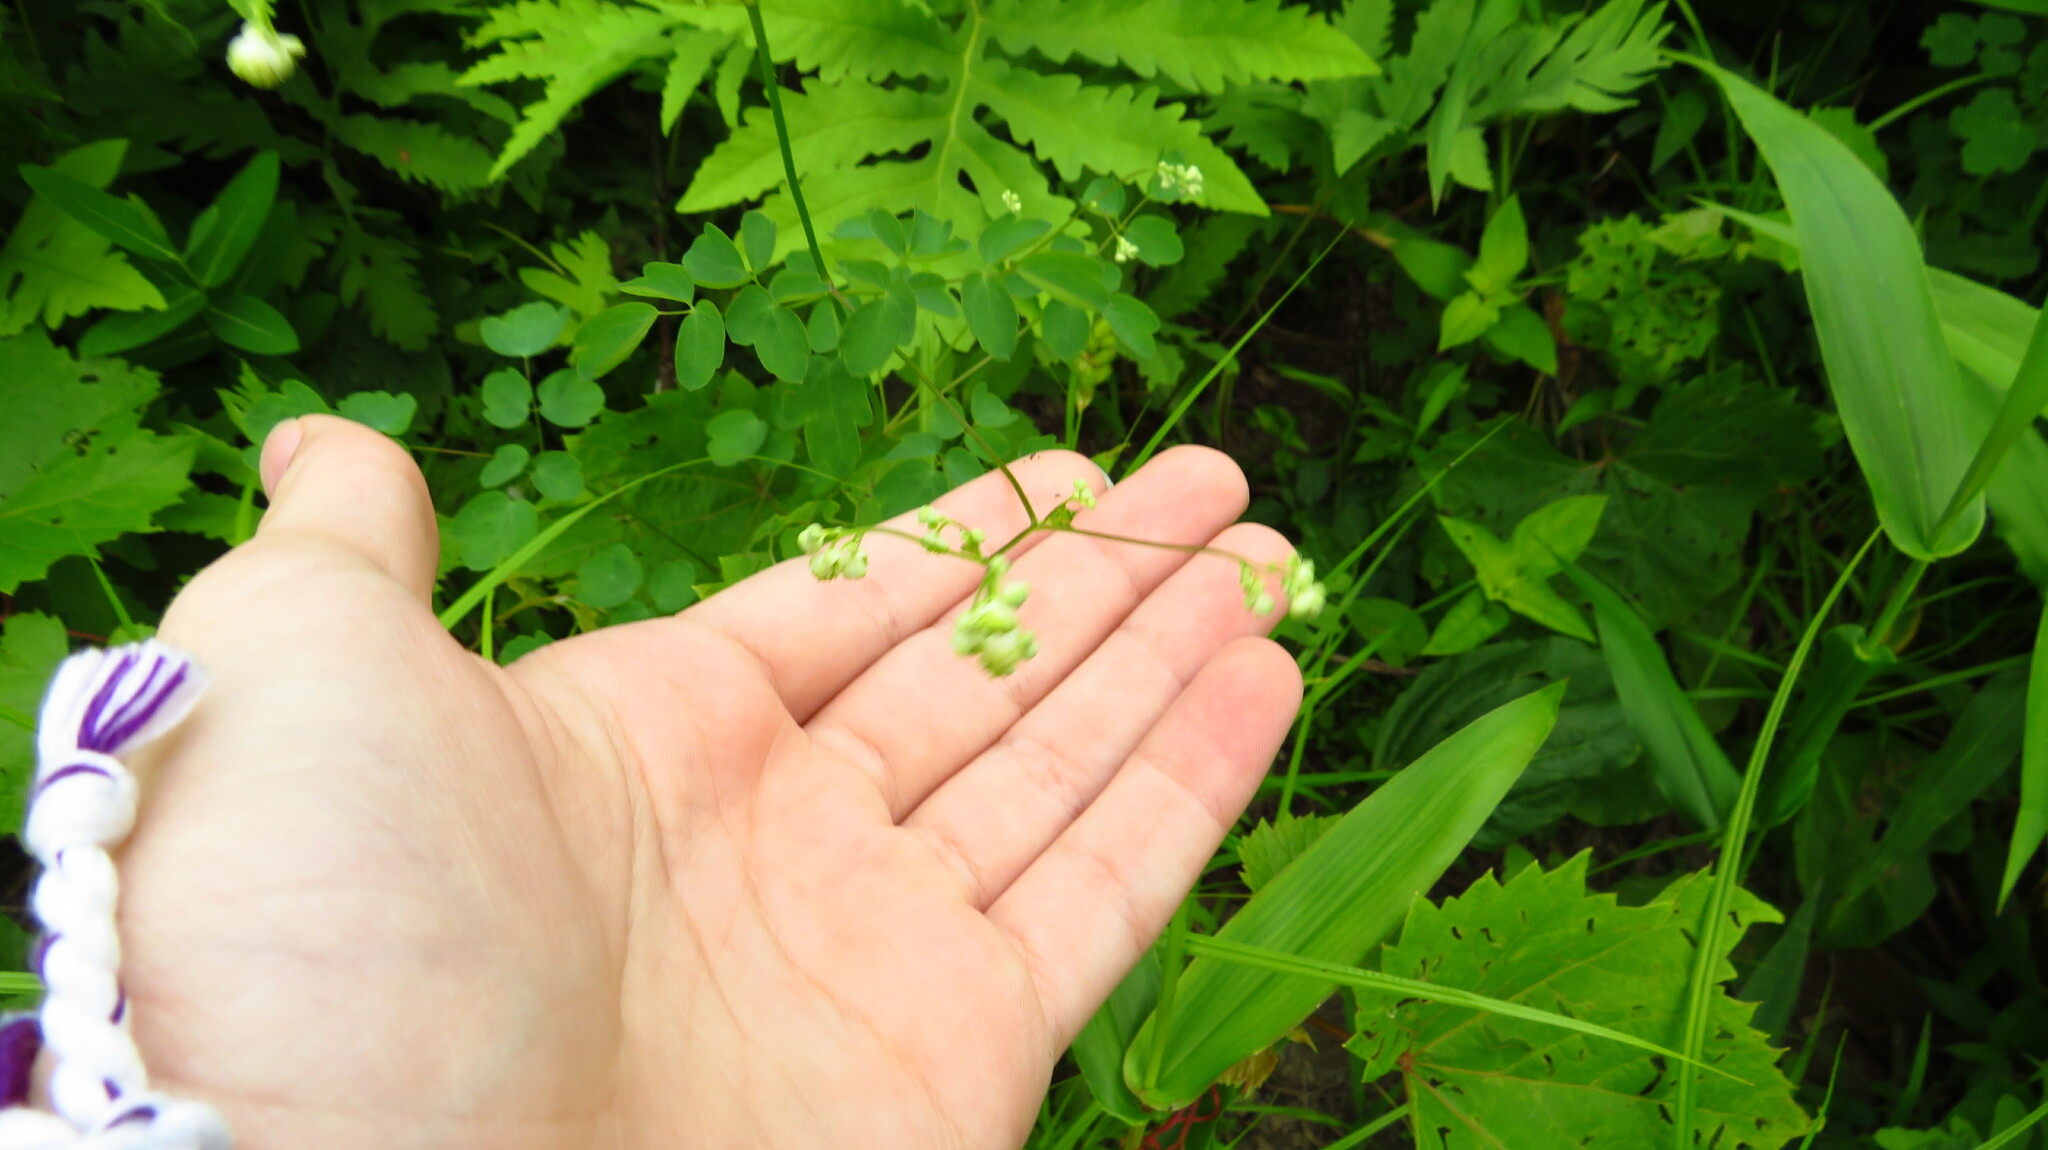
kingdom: Plantae
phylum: Tracheophyta
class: Magnoliopsida
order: Ranunculales
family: Ranunculaceae
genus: Thalictrum
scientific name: Thalictrum pubescens
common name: King-of-the-meadow
